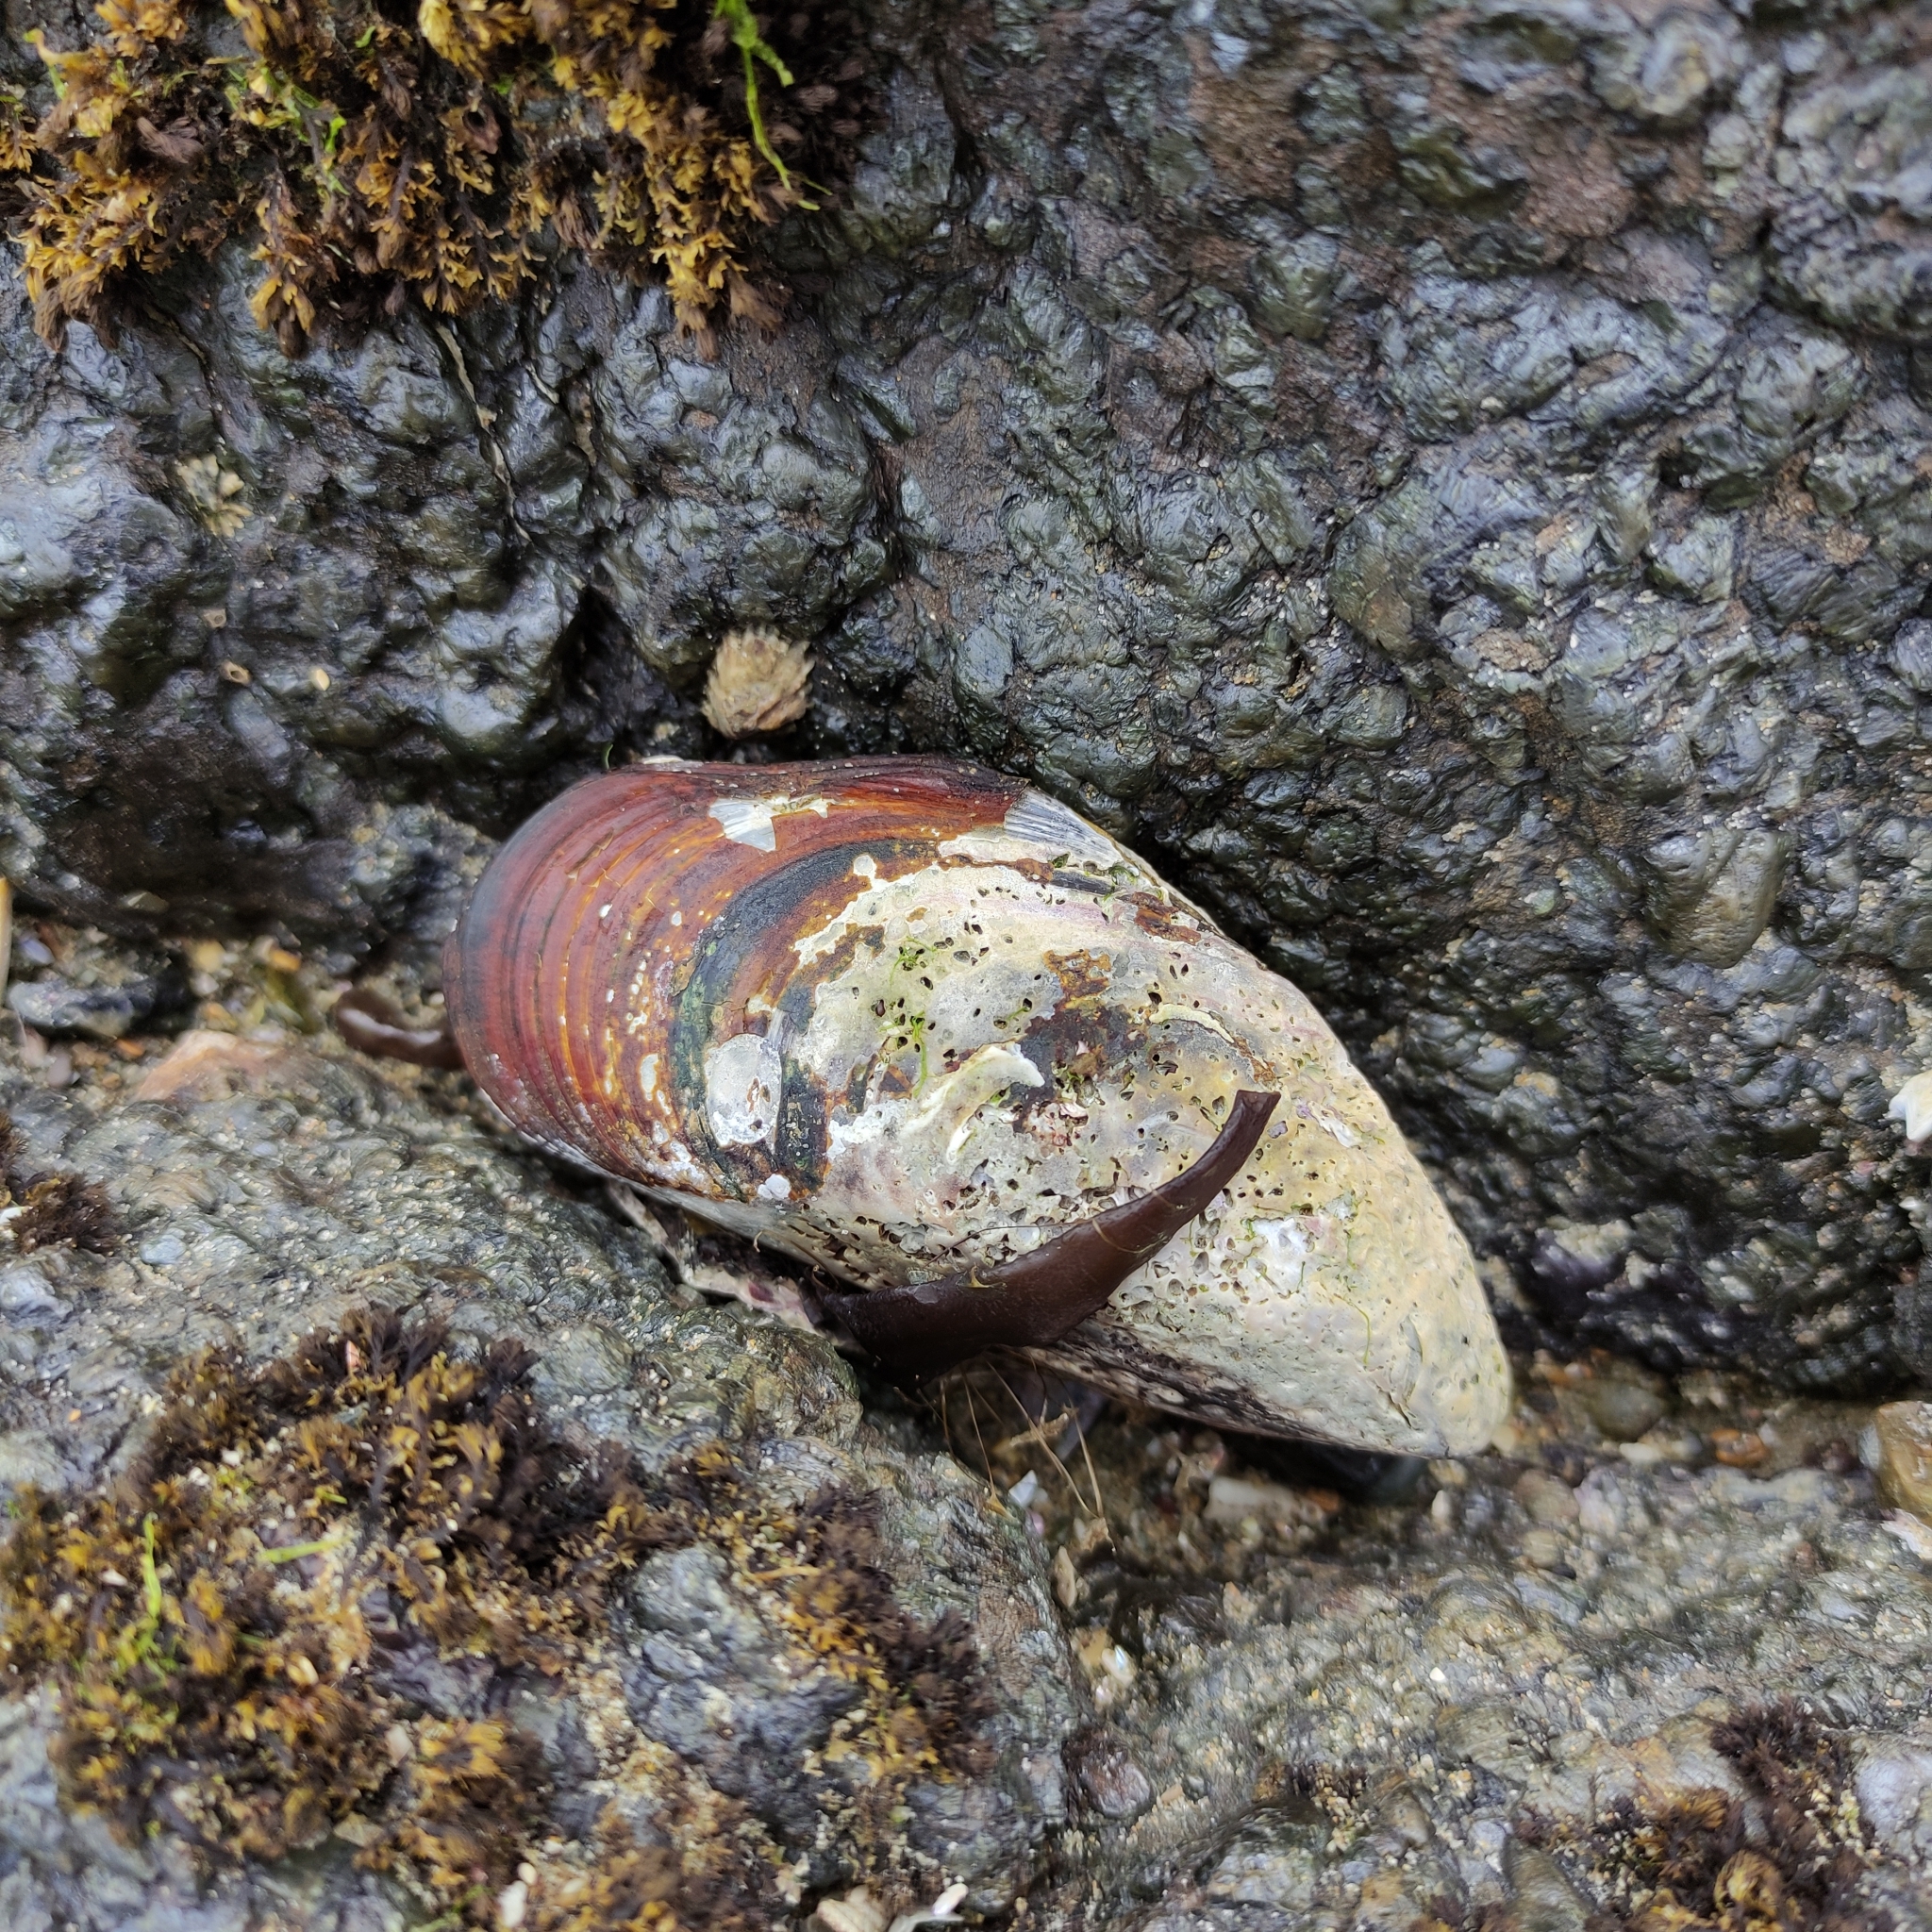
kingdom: Animalia
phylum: Mollusca
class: Bivalvia
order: Mytilida
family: Mytilidae
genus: Perna
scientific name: Perna canaliculus
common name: New zealand greenshelltm
